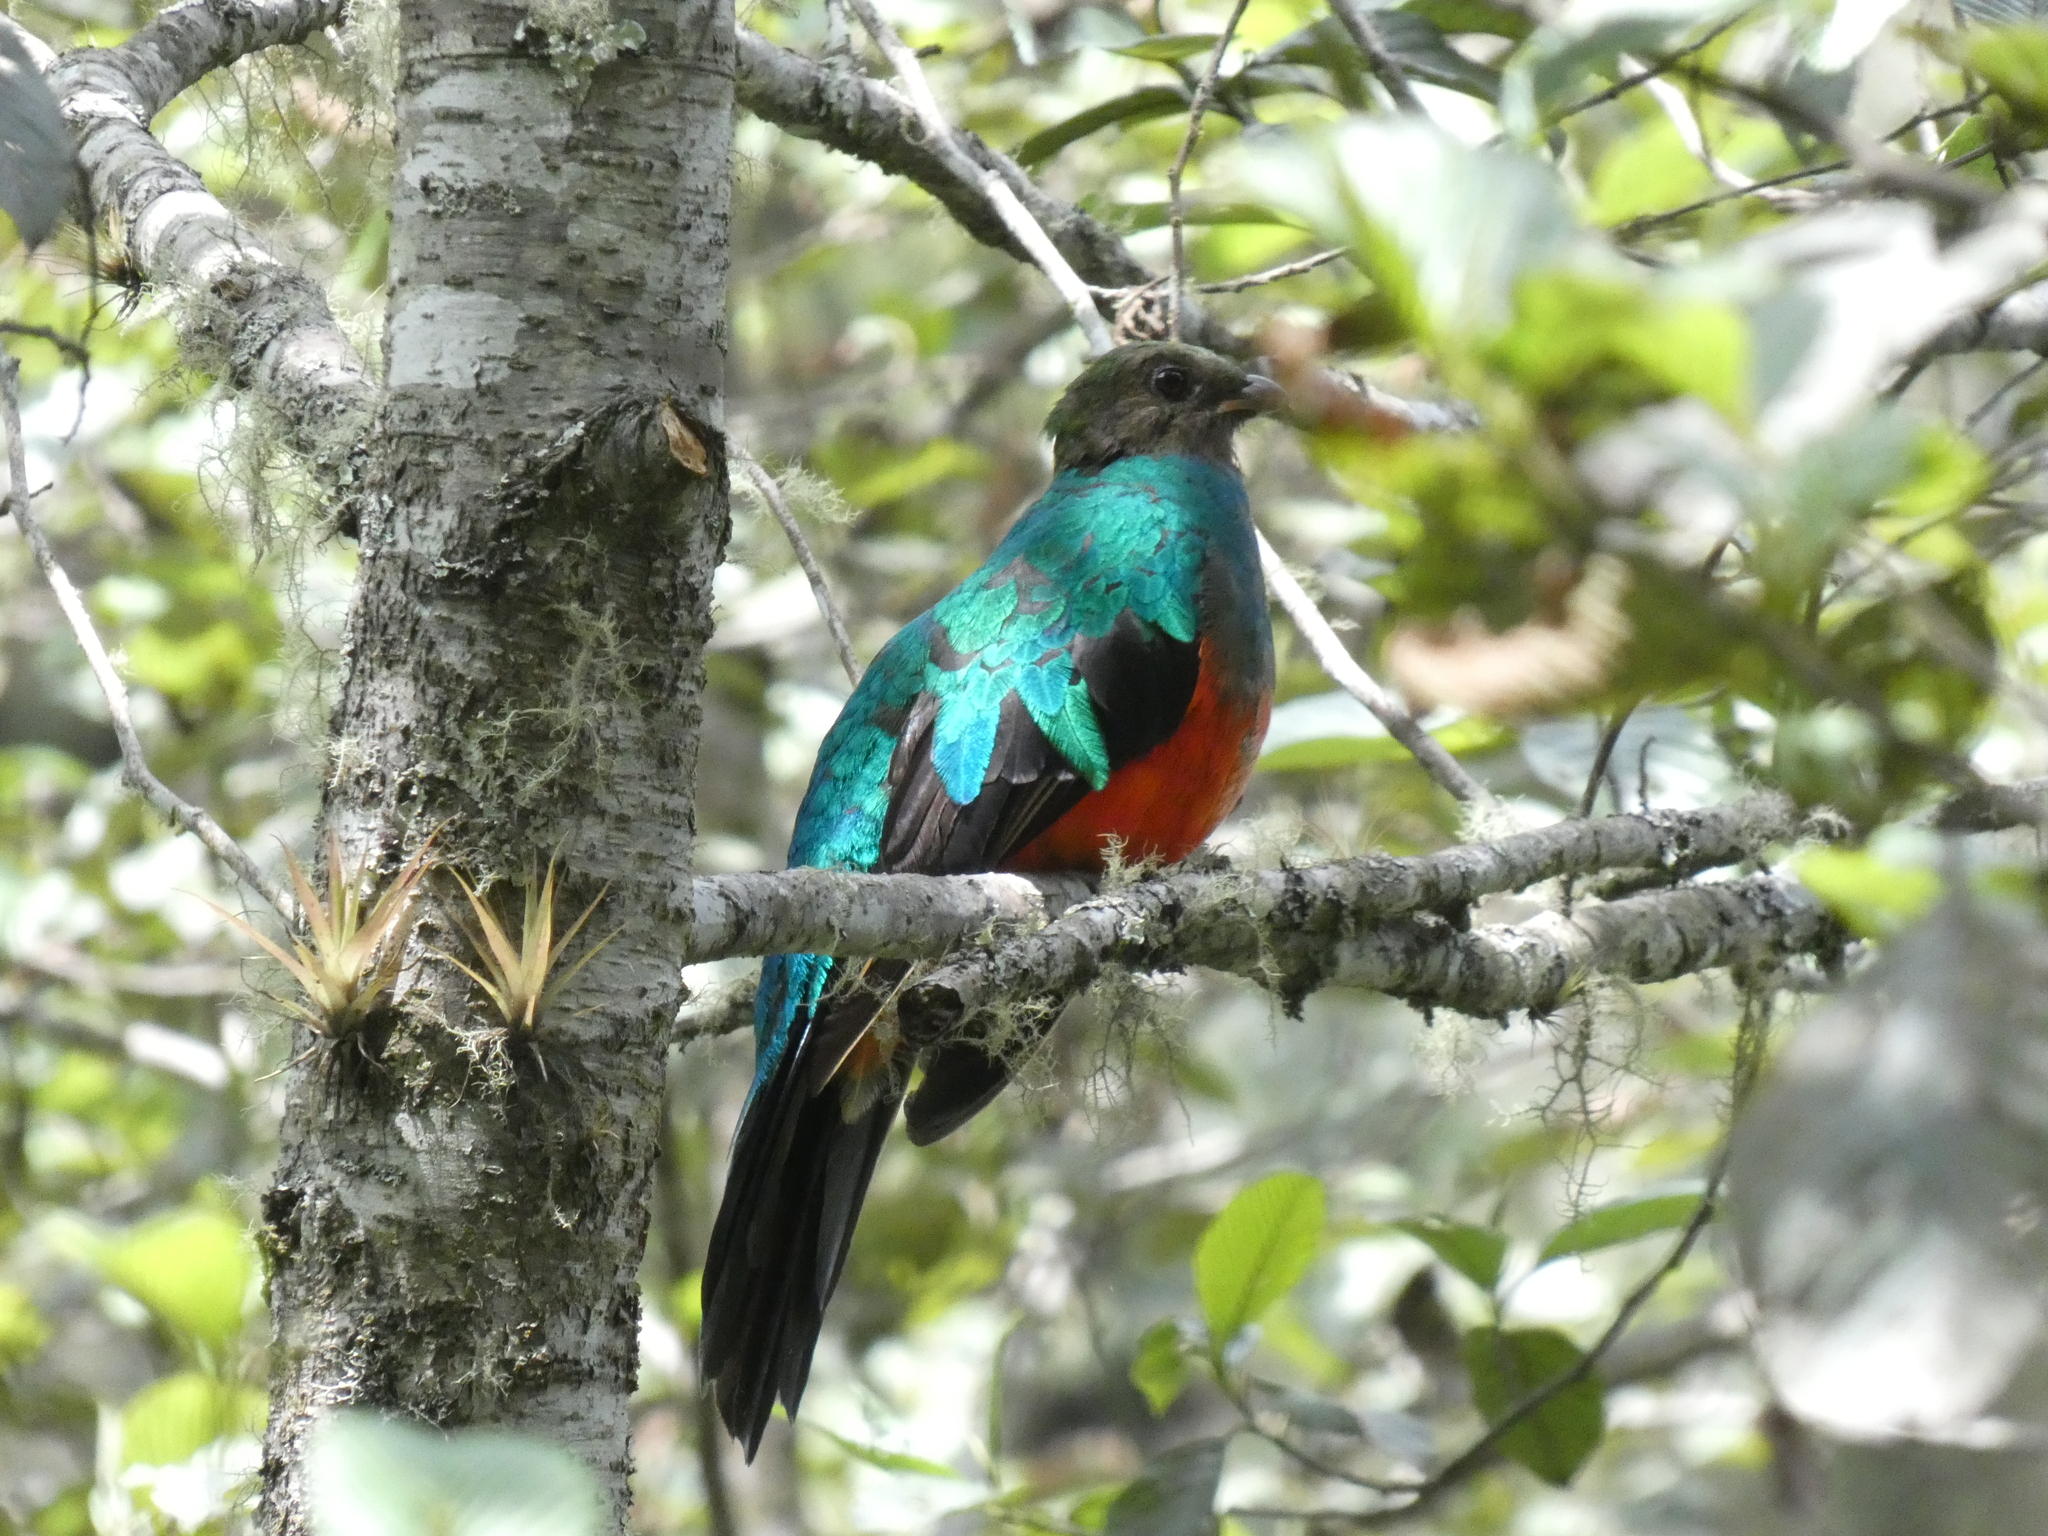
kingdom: Animalia
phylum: Chordata
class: Aves
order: Trogoniformes
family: Trogonidae
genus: Pharomachrus
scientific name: Pharomachrus auriceps
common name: Golden-headed quetzal
